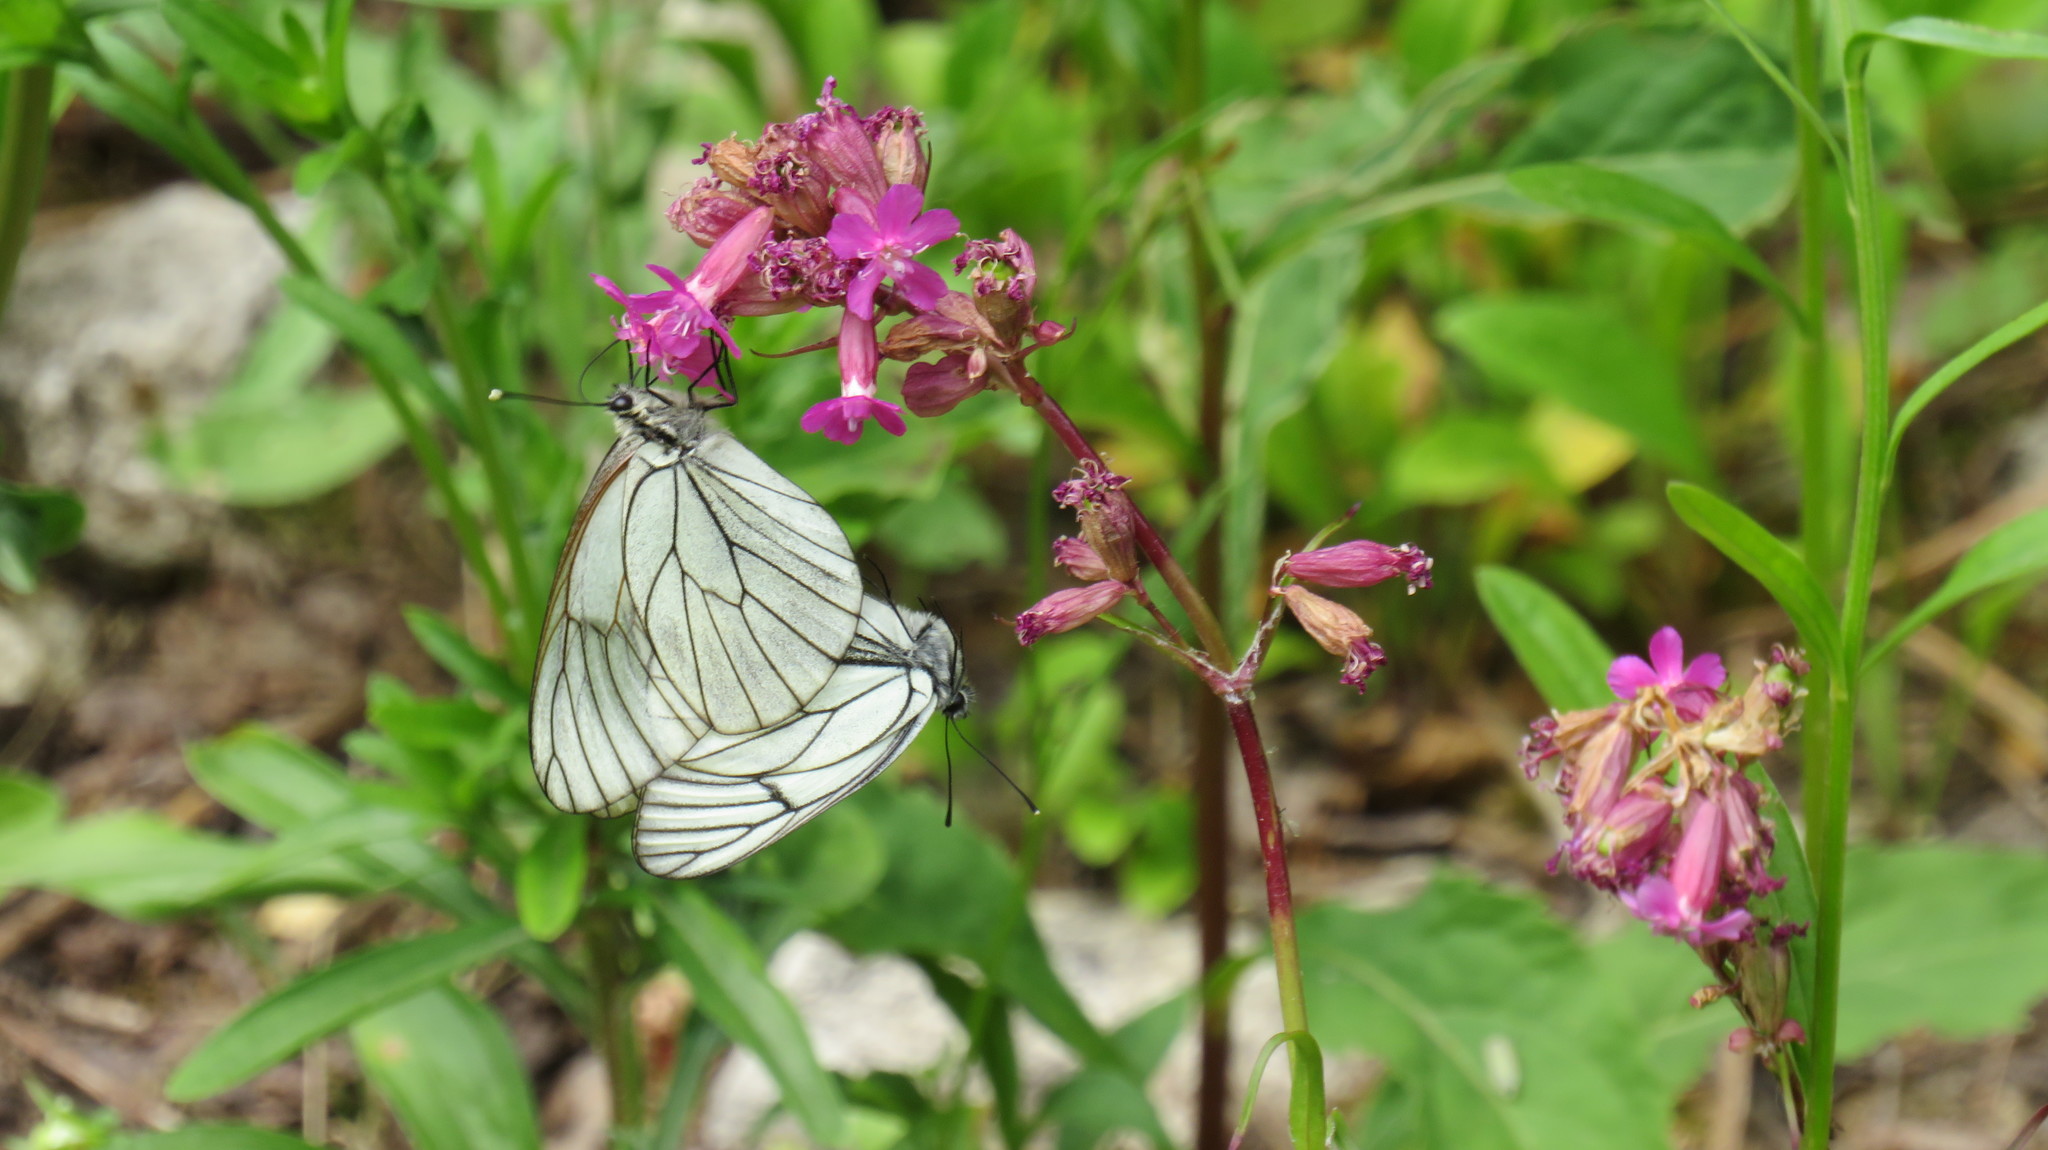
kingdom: Animalia
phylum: Arthropoda
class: Insecta
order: Lepidoptera
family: Pieridae
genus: Aporia
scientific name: Aporia crataegi
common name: Black-veined white
